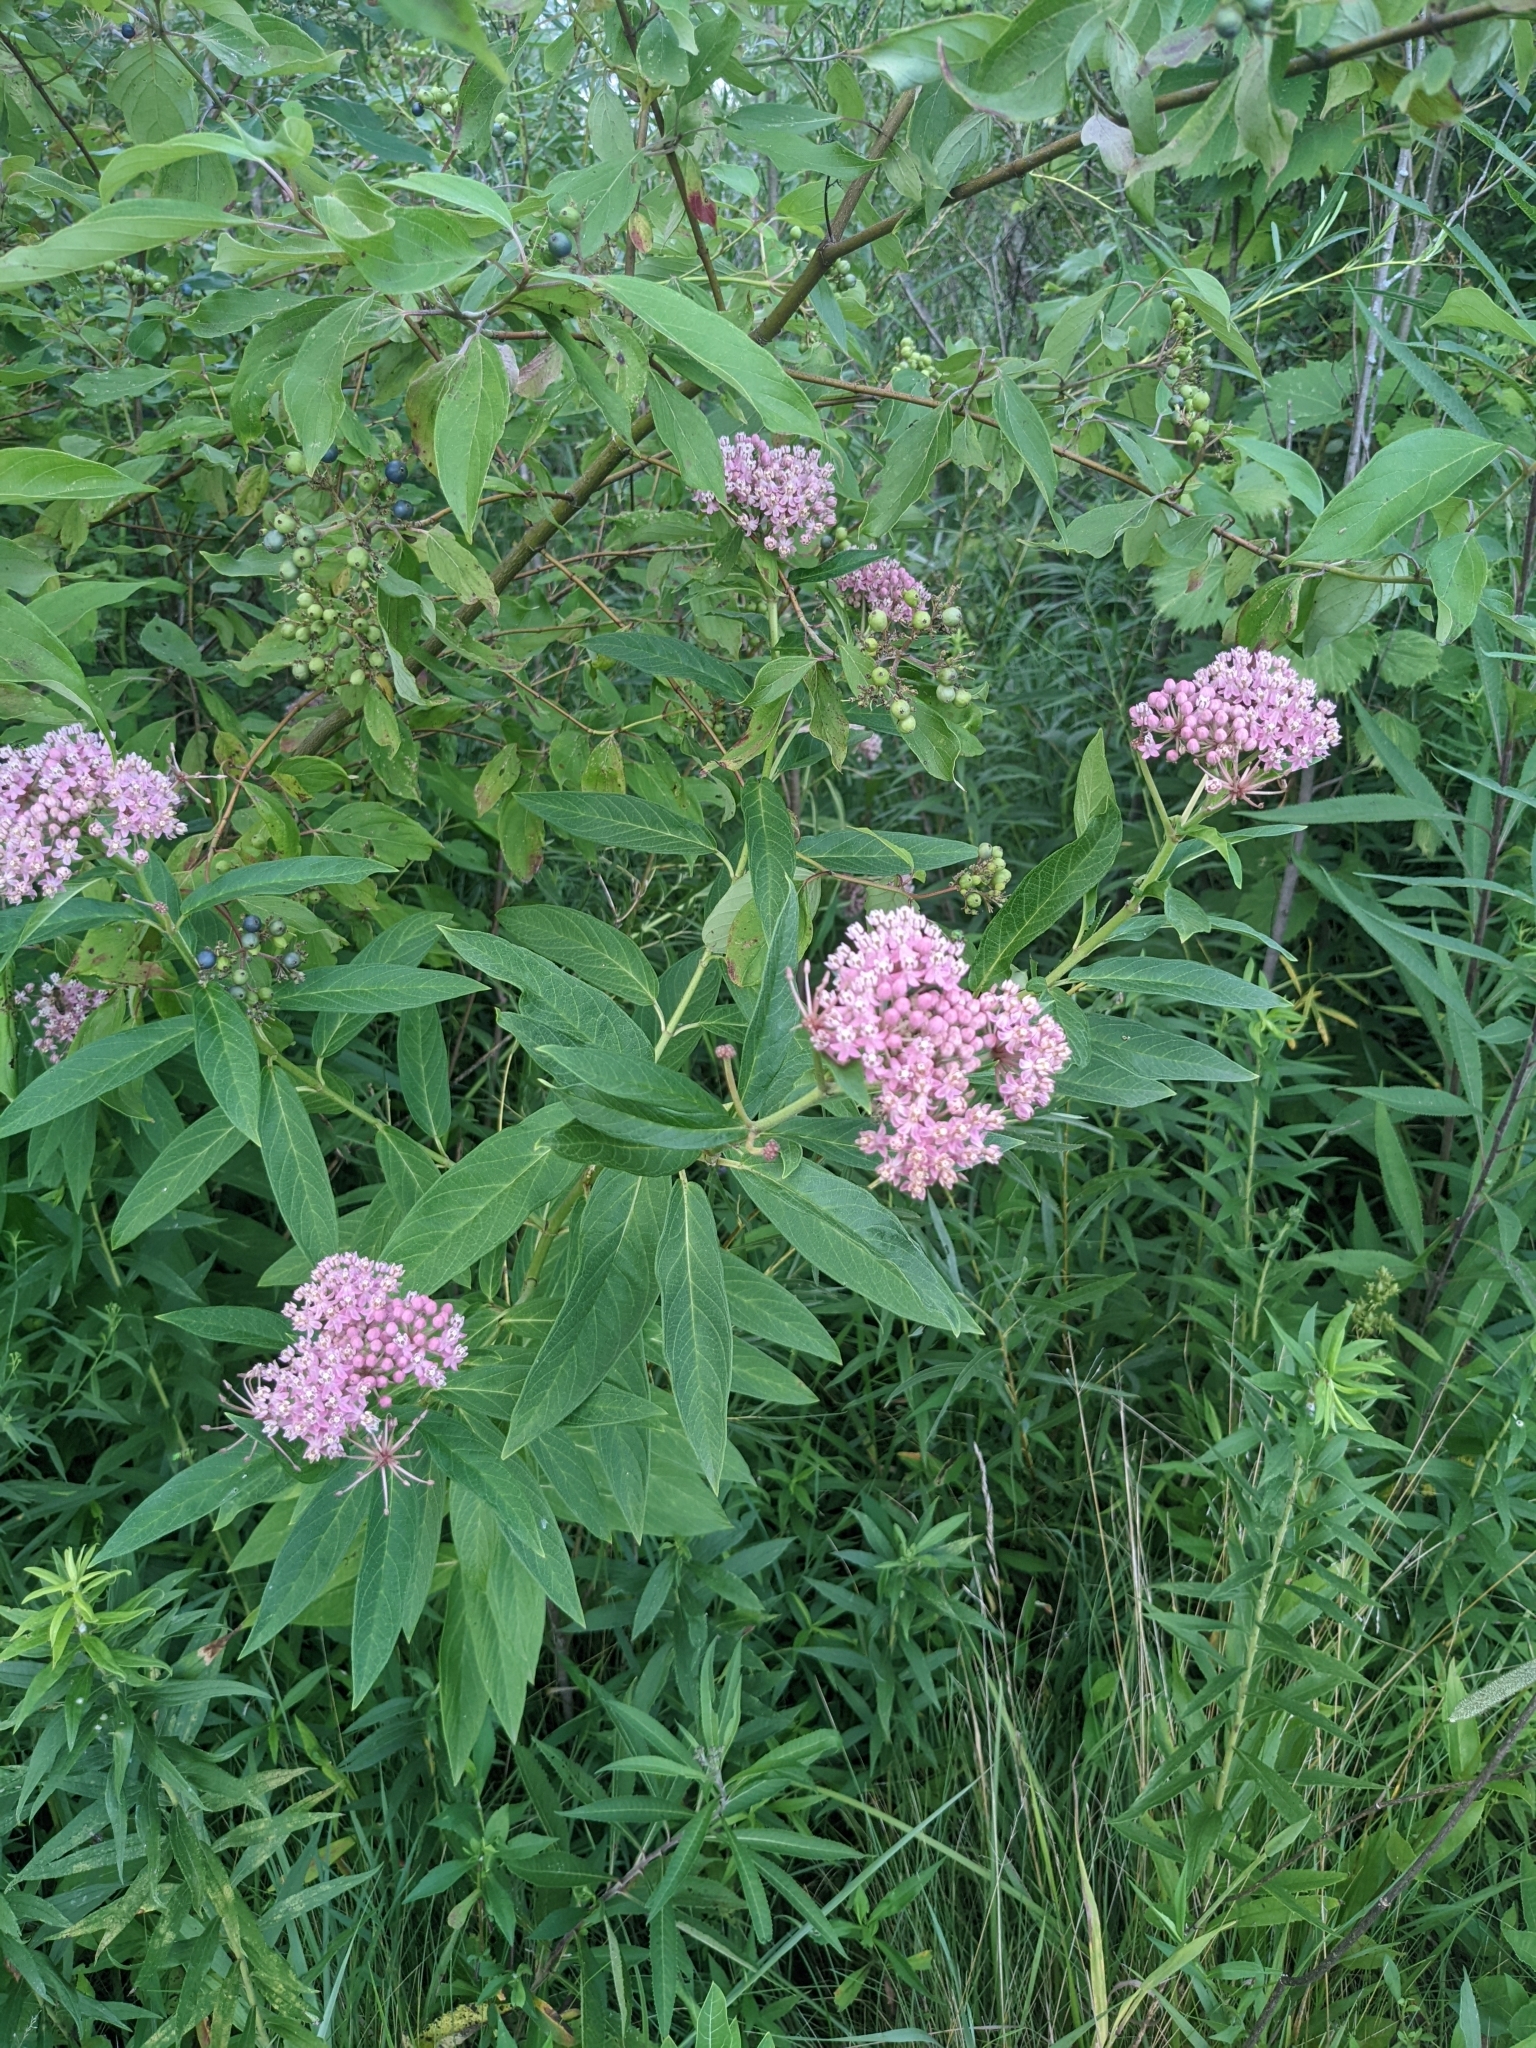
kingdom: Plantae
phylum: Tracheophyta
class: Magnoliopsida
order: Gentianales
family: Apocynaceae
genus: Asclepias
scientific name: Asclepias incarnata
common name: Swamp milkweed
